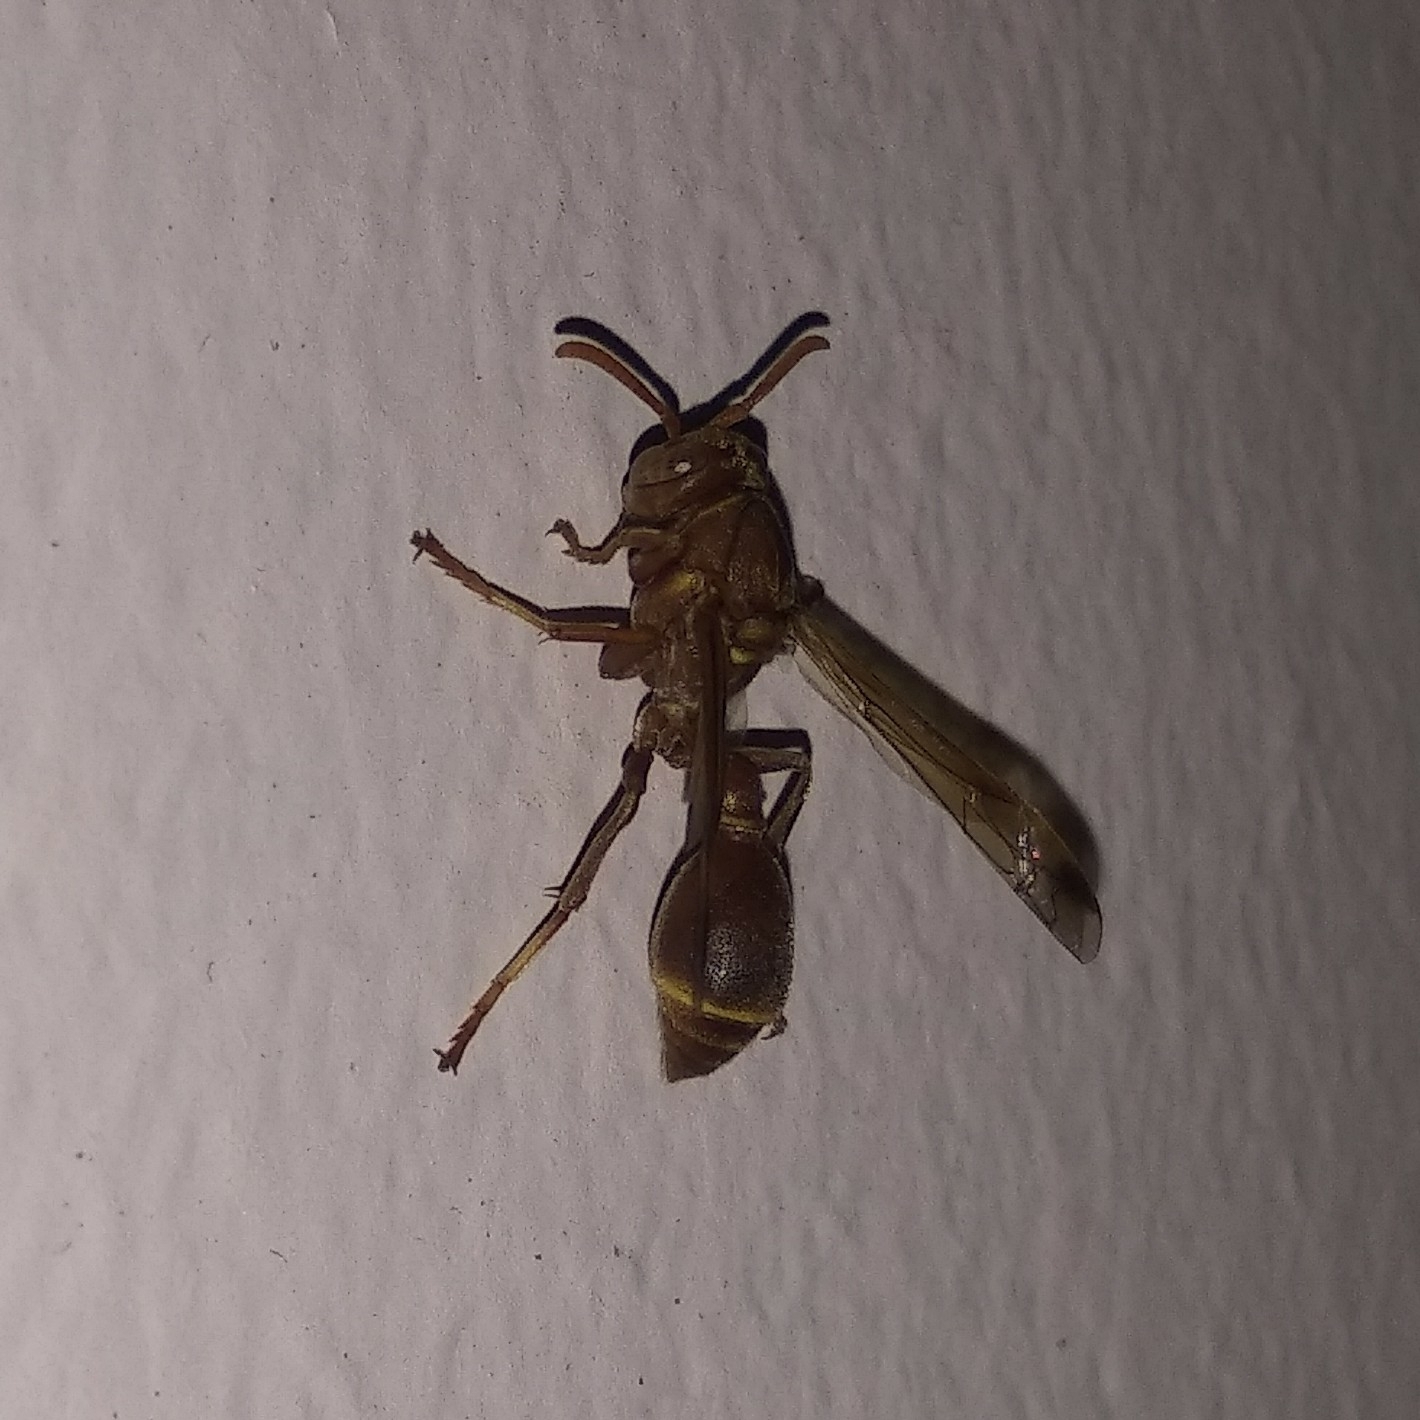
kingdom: Animalia
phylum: Arthropoda
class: Insecta
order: Hymenoptera
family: Vespidae
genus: Ropalidia
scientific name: Ropalidia marginata
